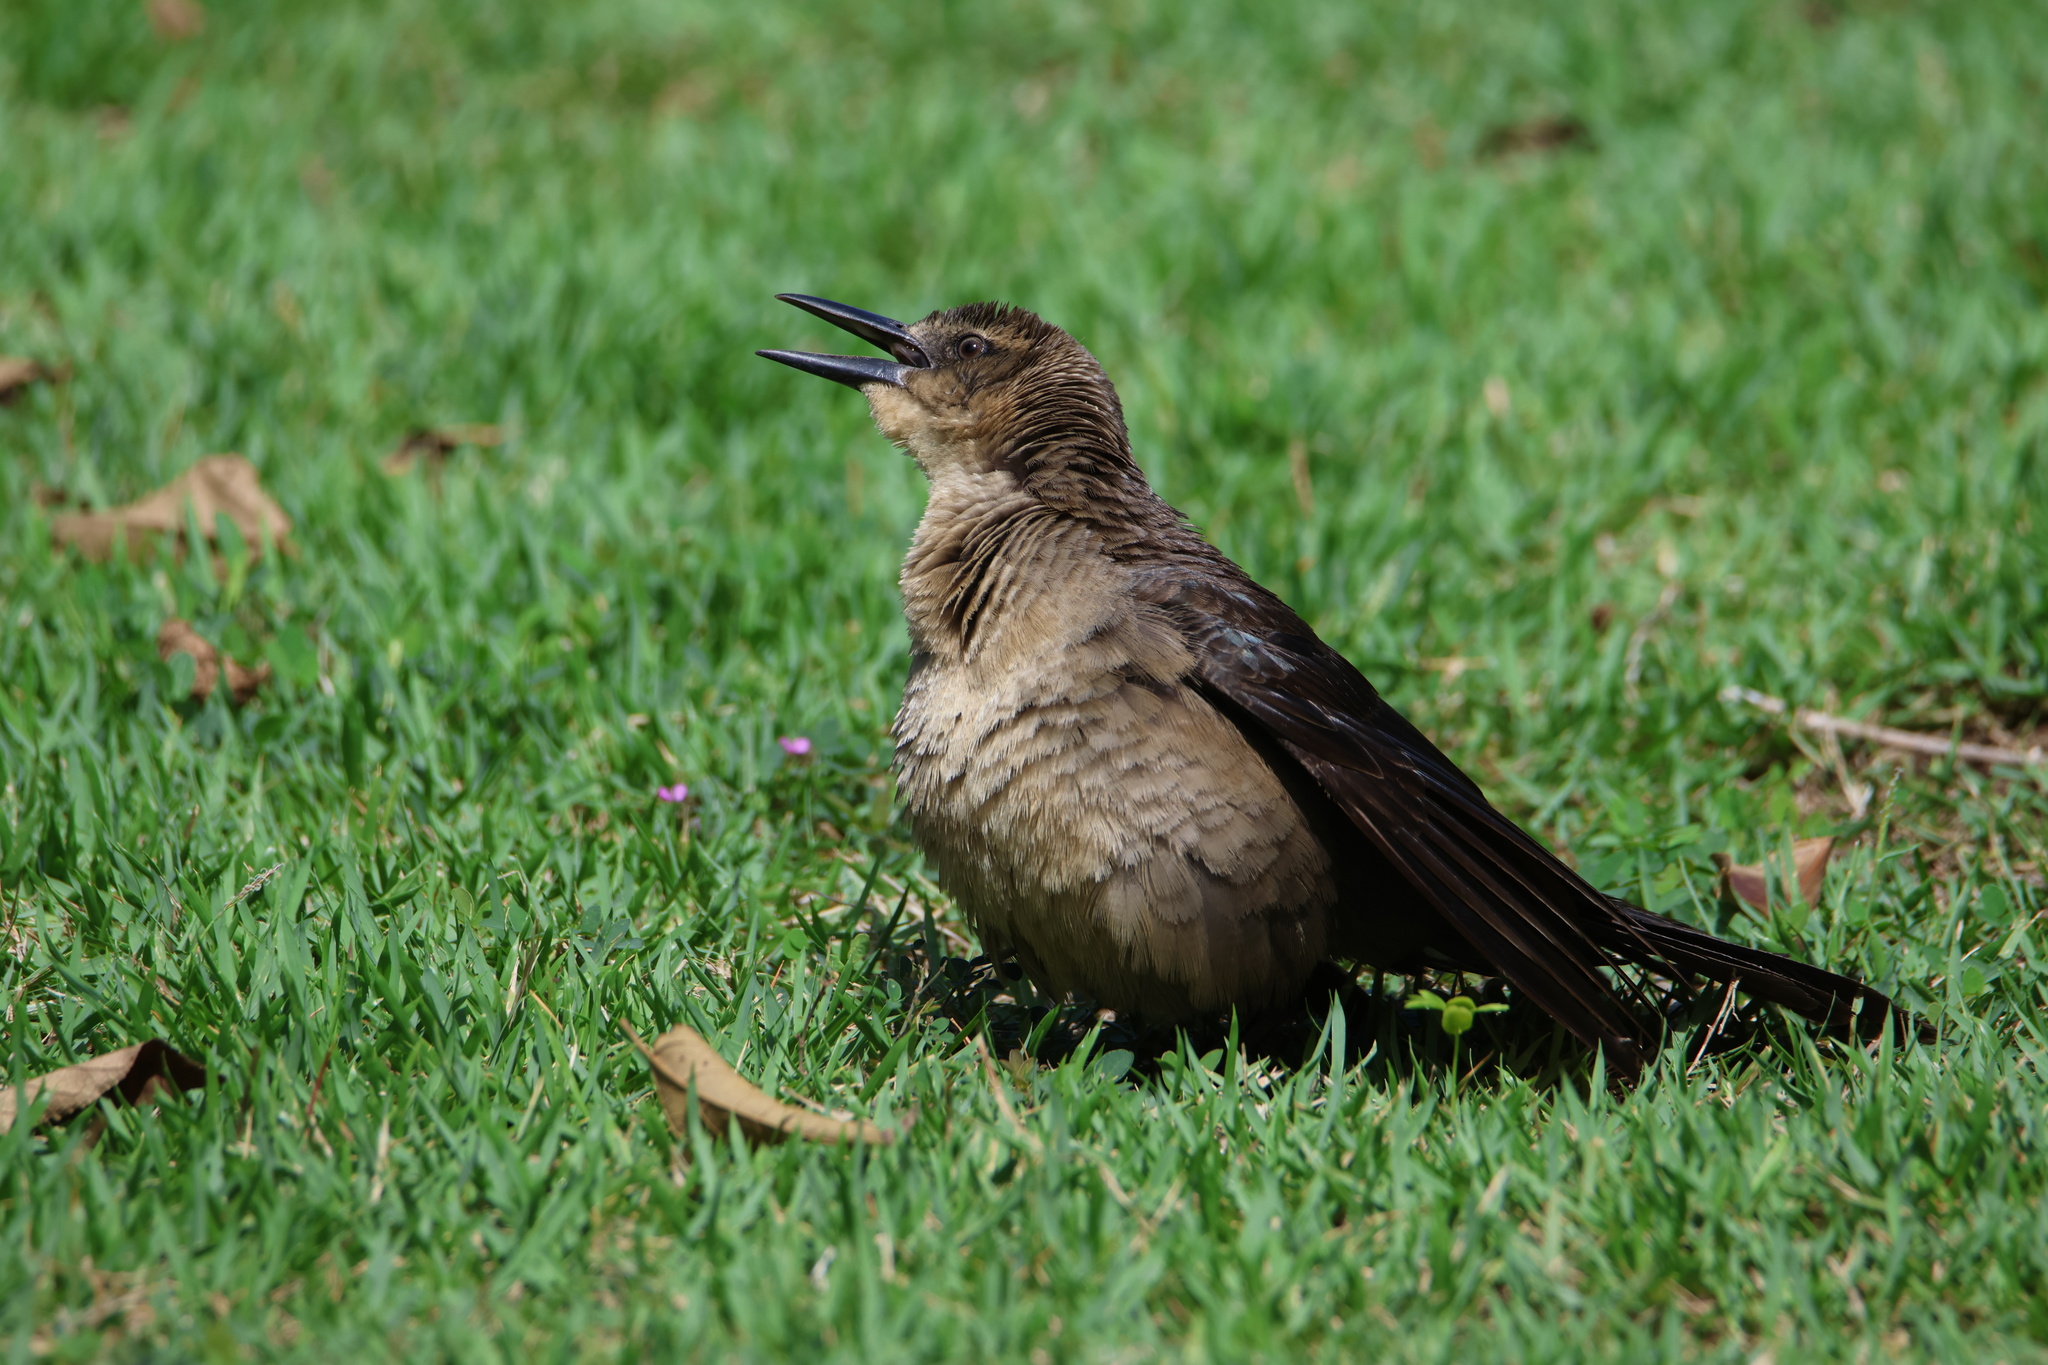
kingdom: Animalia
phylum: Chordata
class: Aves
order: Passeriformes
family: Icteridae
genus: Quiscalus
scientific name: Quiscalus mexicanus
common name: Great-tailed grackle
